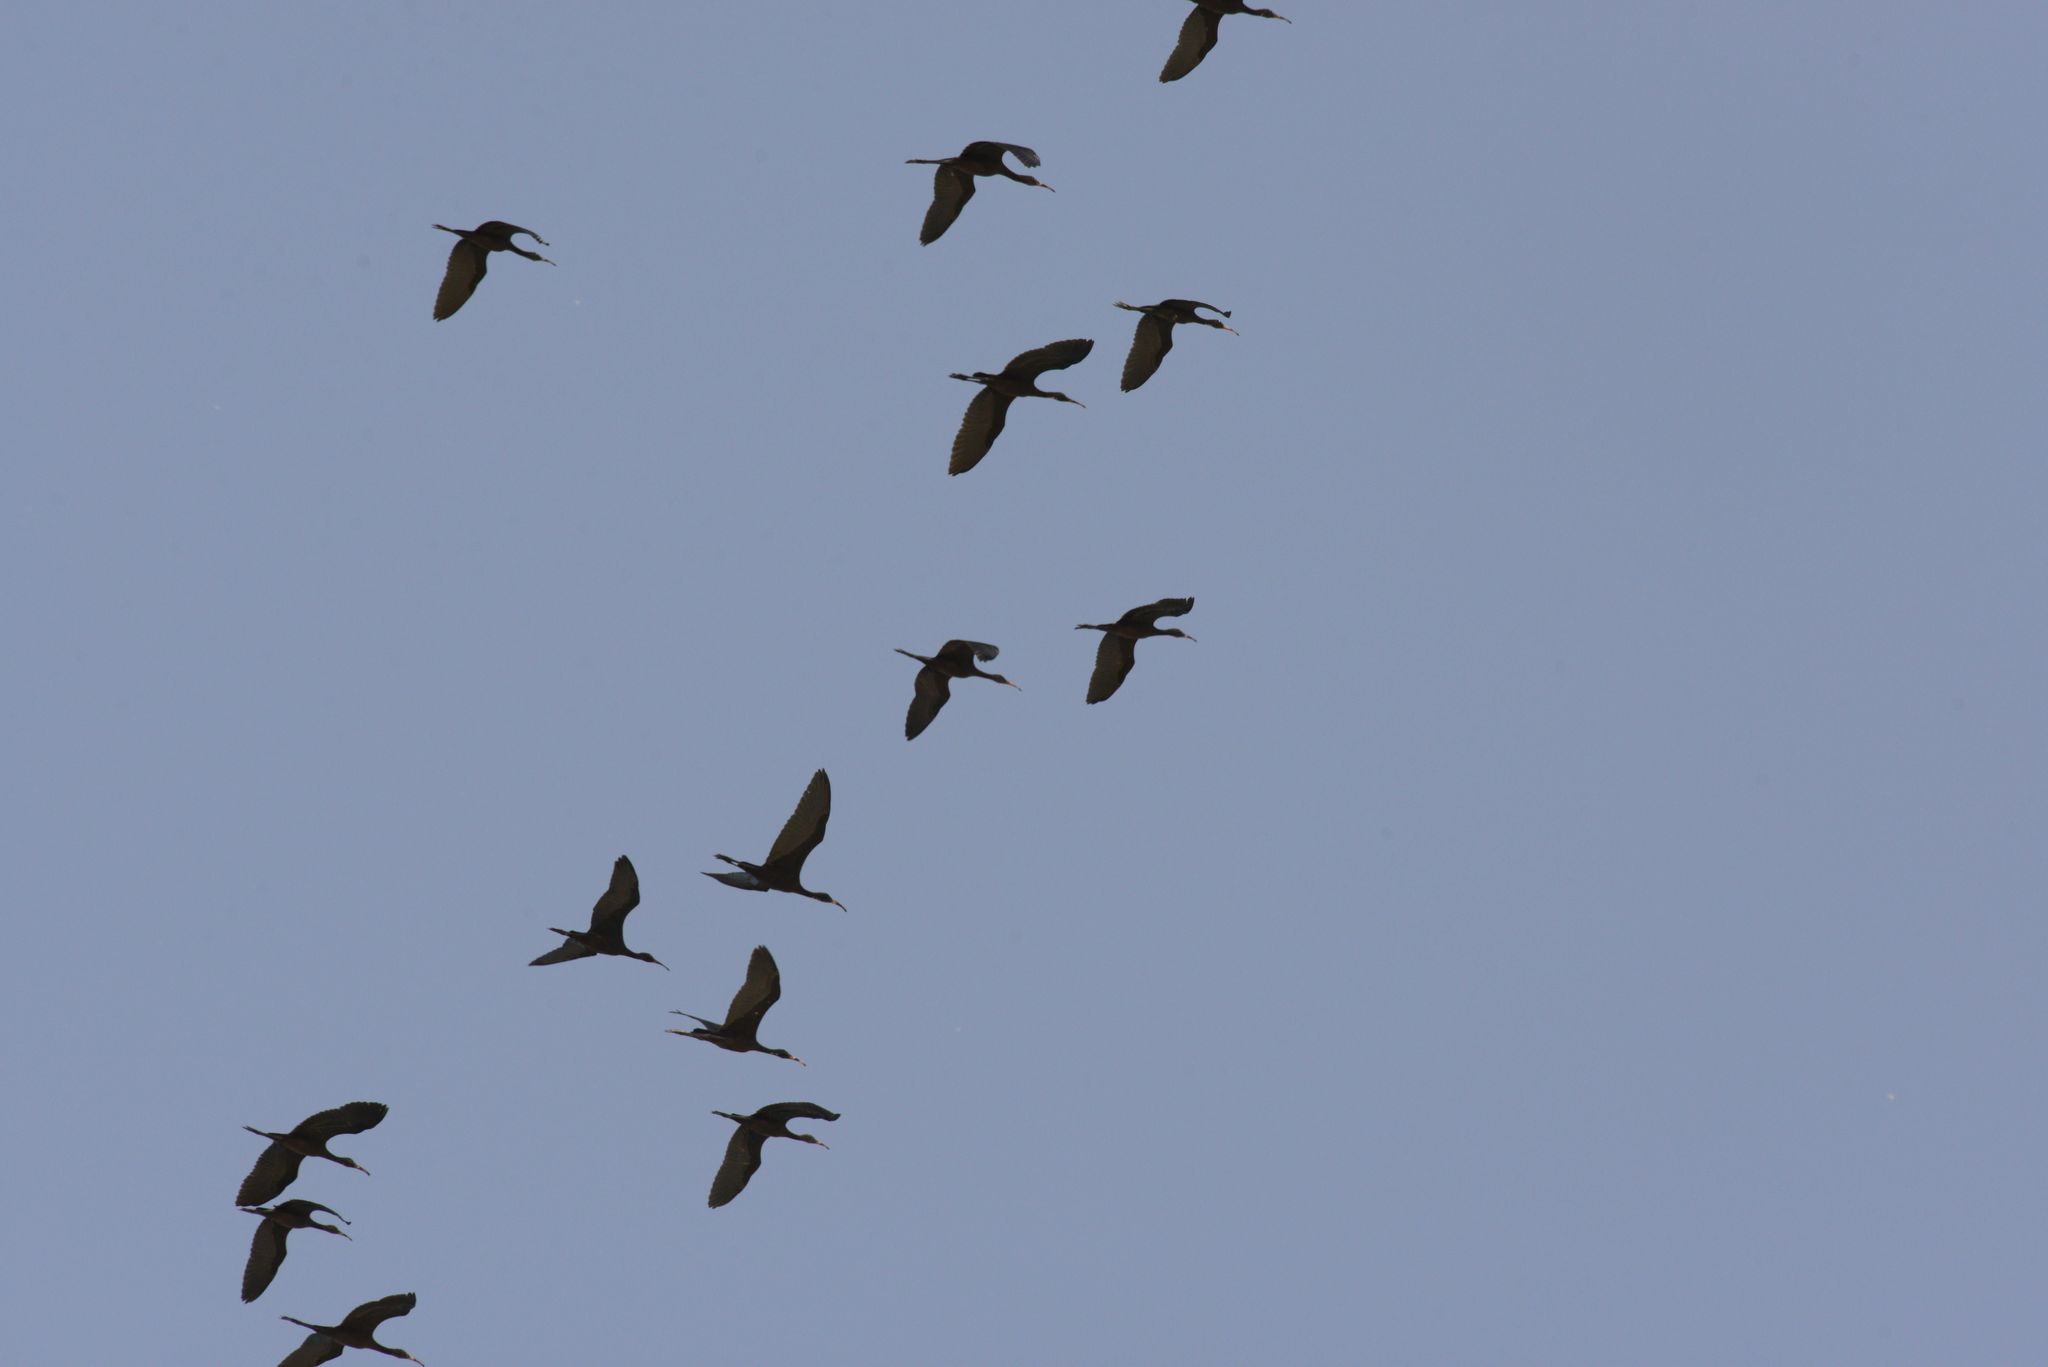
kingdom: Animalia
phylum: Chordata
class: Aves
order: Pelecaniformes
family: Threskiornithidae
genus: Plegadis
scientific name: Plegadis falcinellus
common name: Glossy ibis
